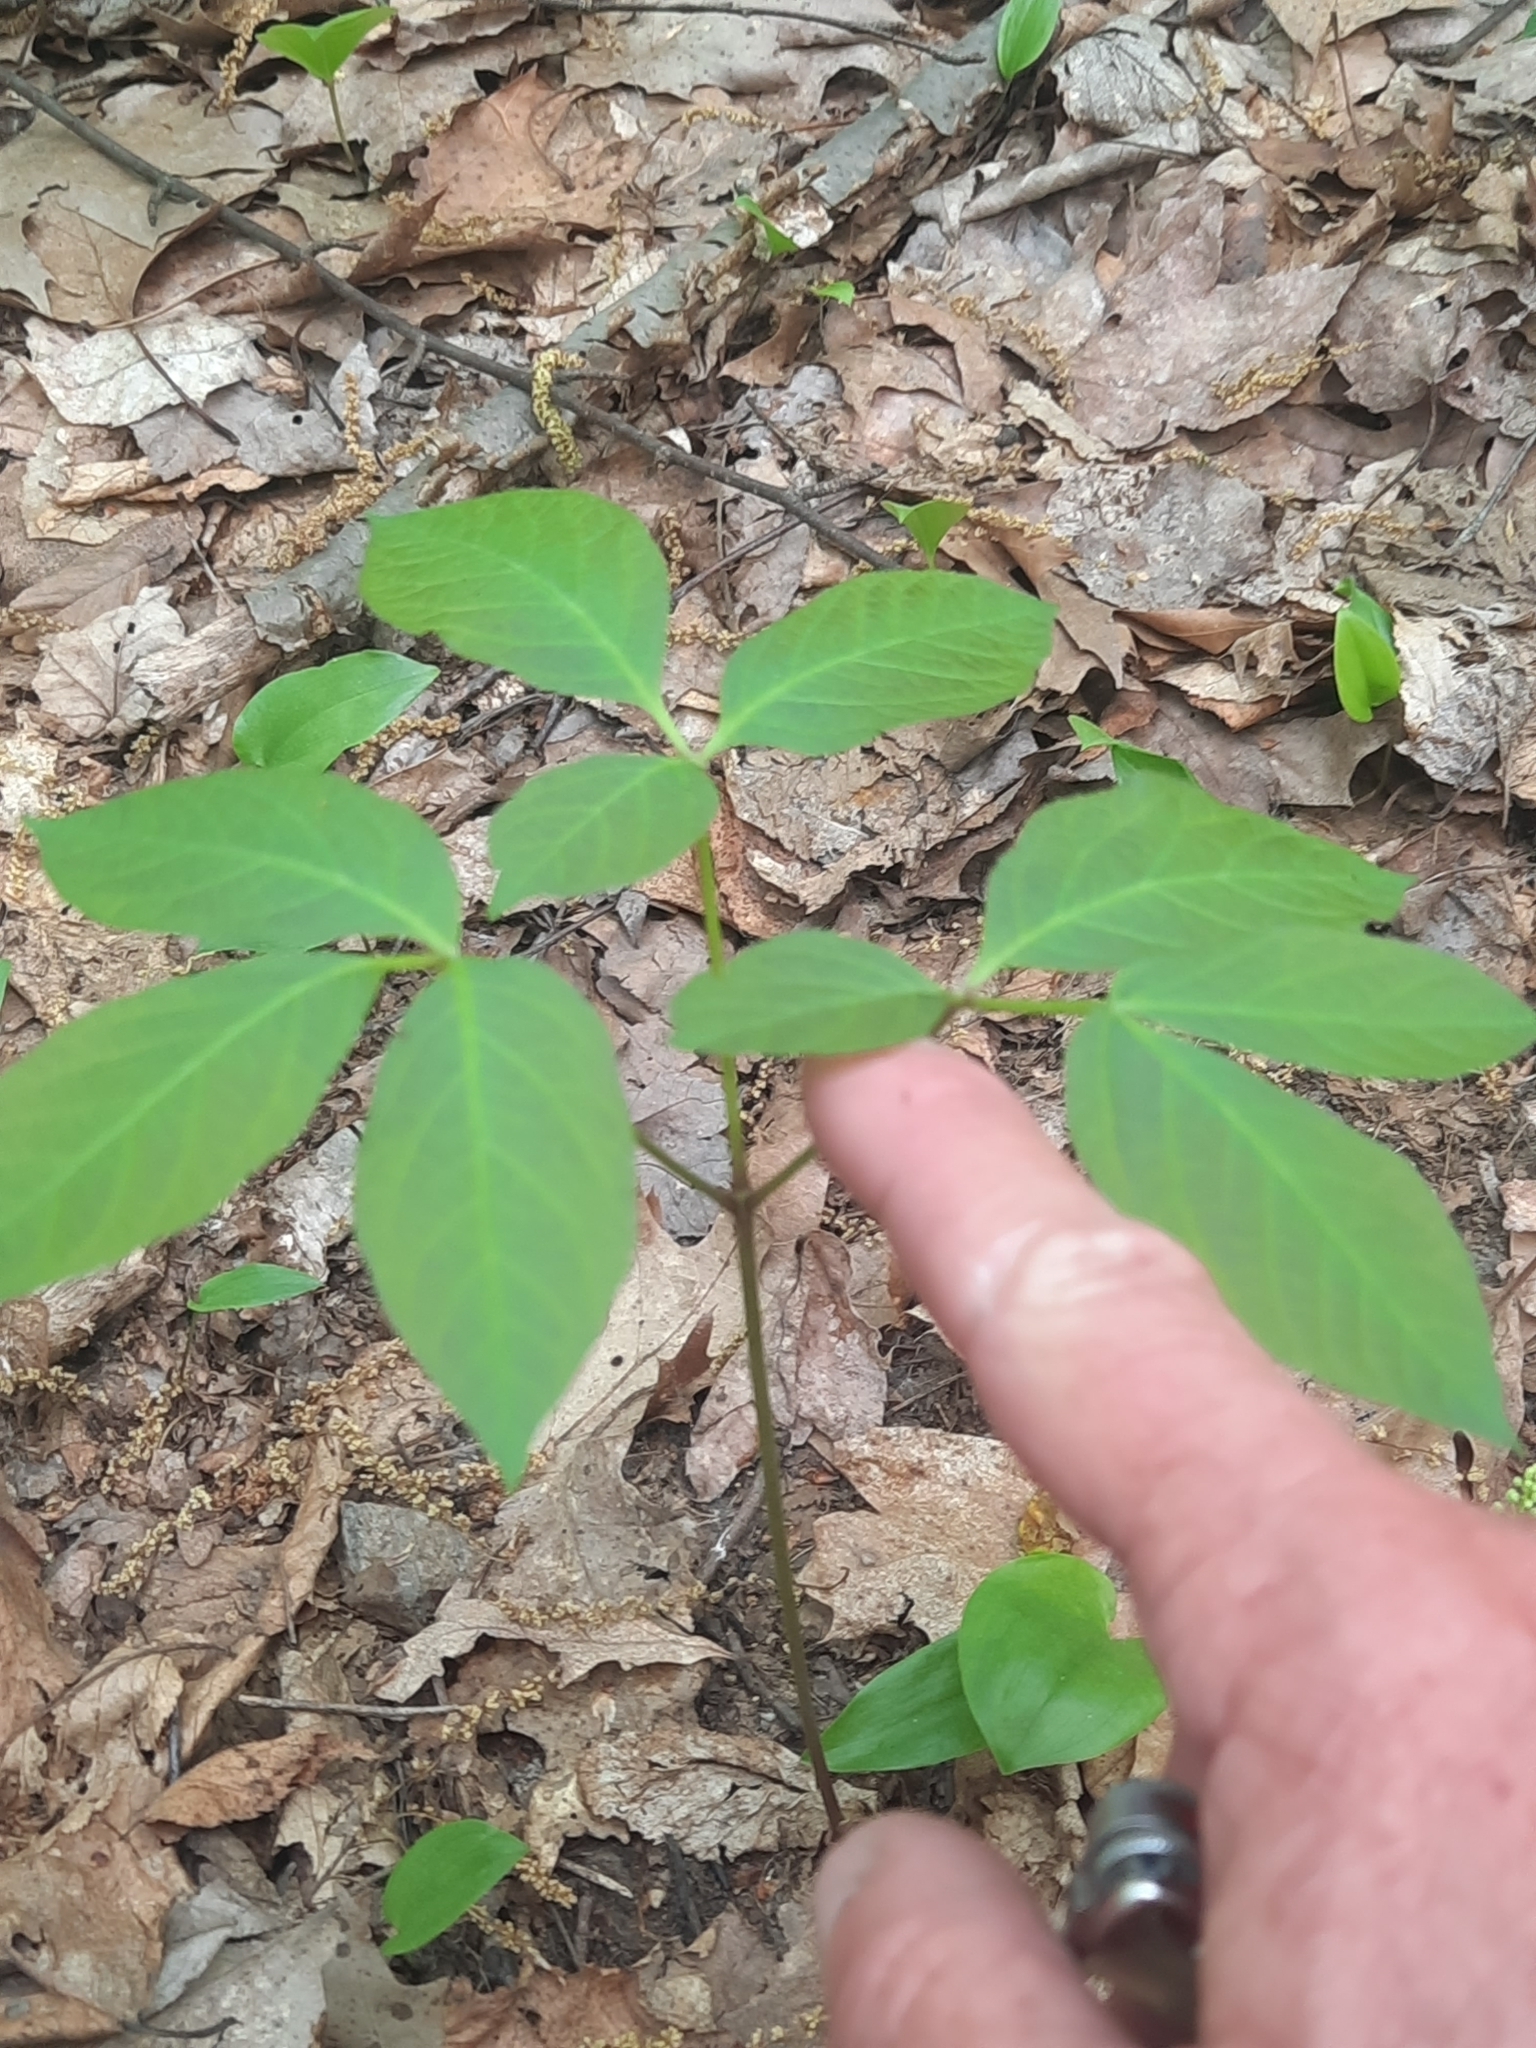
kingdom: Plantae
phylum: Tracheophyta
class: Magnoliopsida
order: Apiales
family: Araliaceae
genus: Aralia
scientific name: Aralia nudicaulis
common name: Wild sarsaparilla
